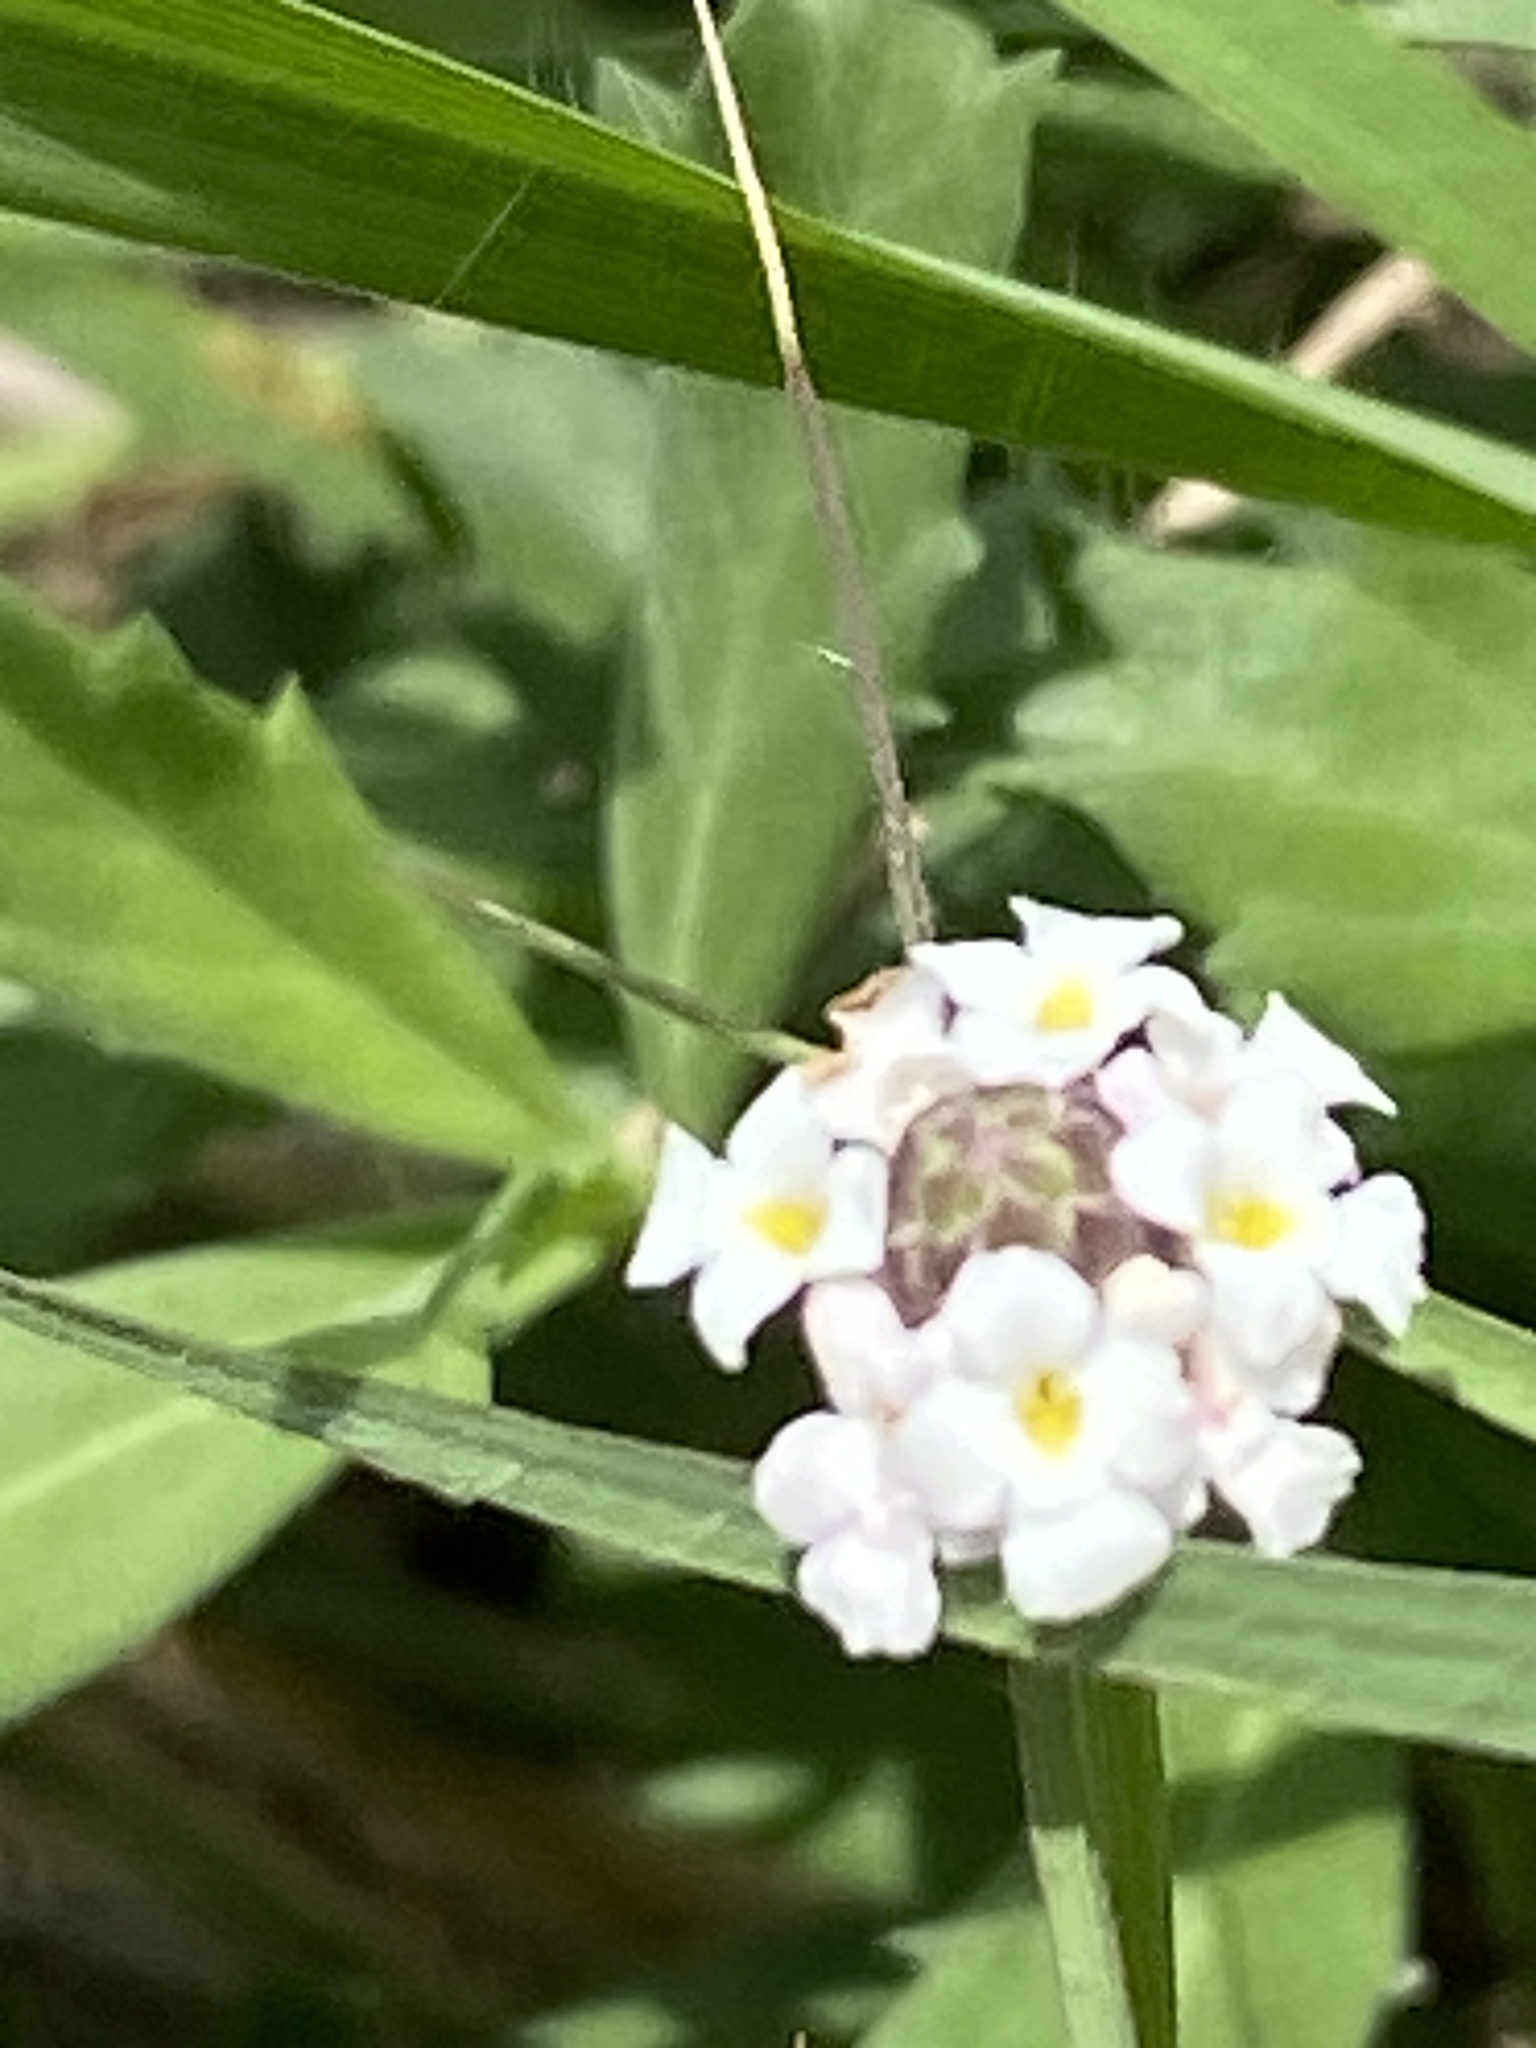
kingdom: Plantae
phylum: Tracheophyta
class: Magnoliopsida
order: Lamiales
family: Verbenaceae
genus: Phyla
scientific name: Phyla nodiflora
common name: Frogfruit
